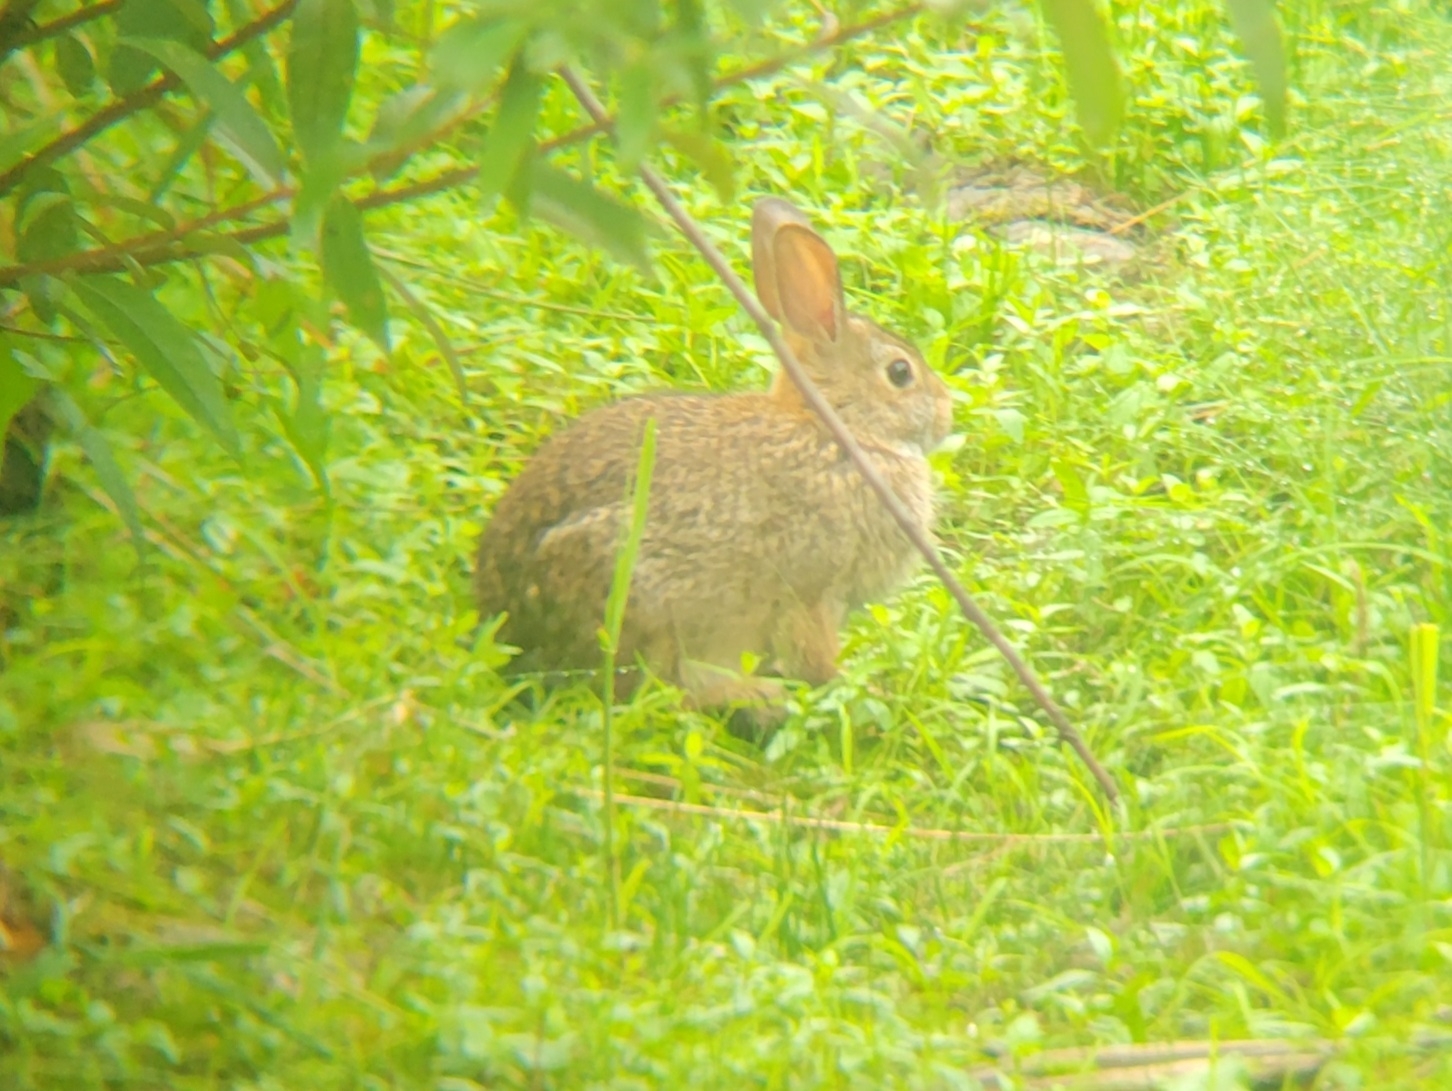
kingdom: Animalia
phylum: Chordata
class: Mammalia
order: Lagomorpha
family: Leporidae
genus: Sylvilagus
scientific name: Sylvilagus floridanus
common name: Eastern cottontail
